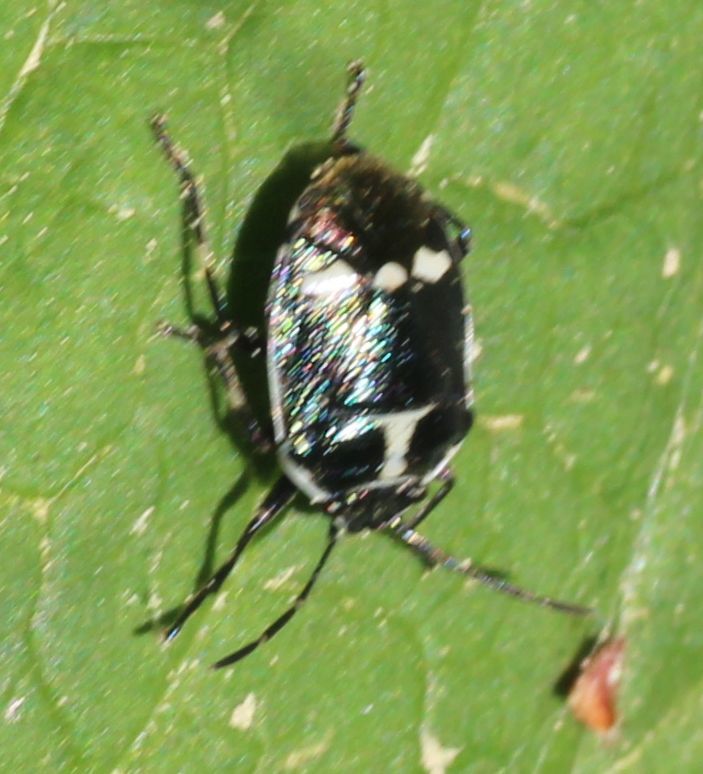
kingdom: Animalia
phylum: Arthropoda
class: Insecta
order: Hemiptera
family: Pentatomidae
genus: Eurydema
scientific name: Eurydema oleracea
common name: Cabbage bug
